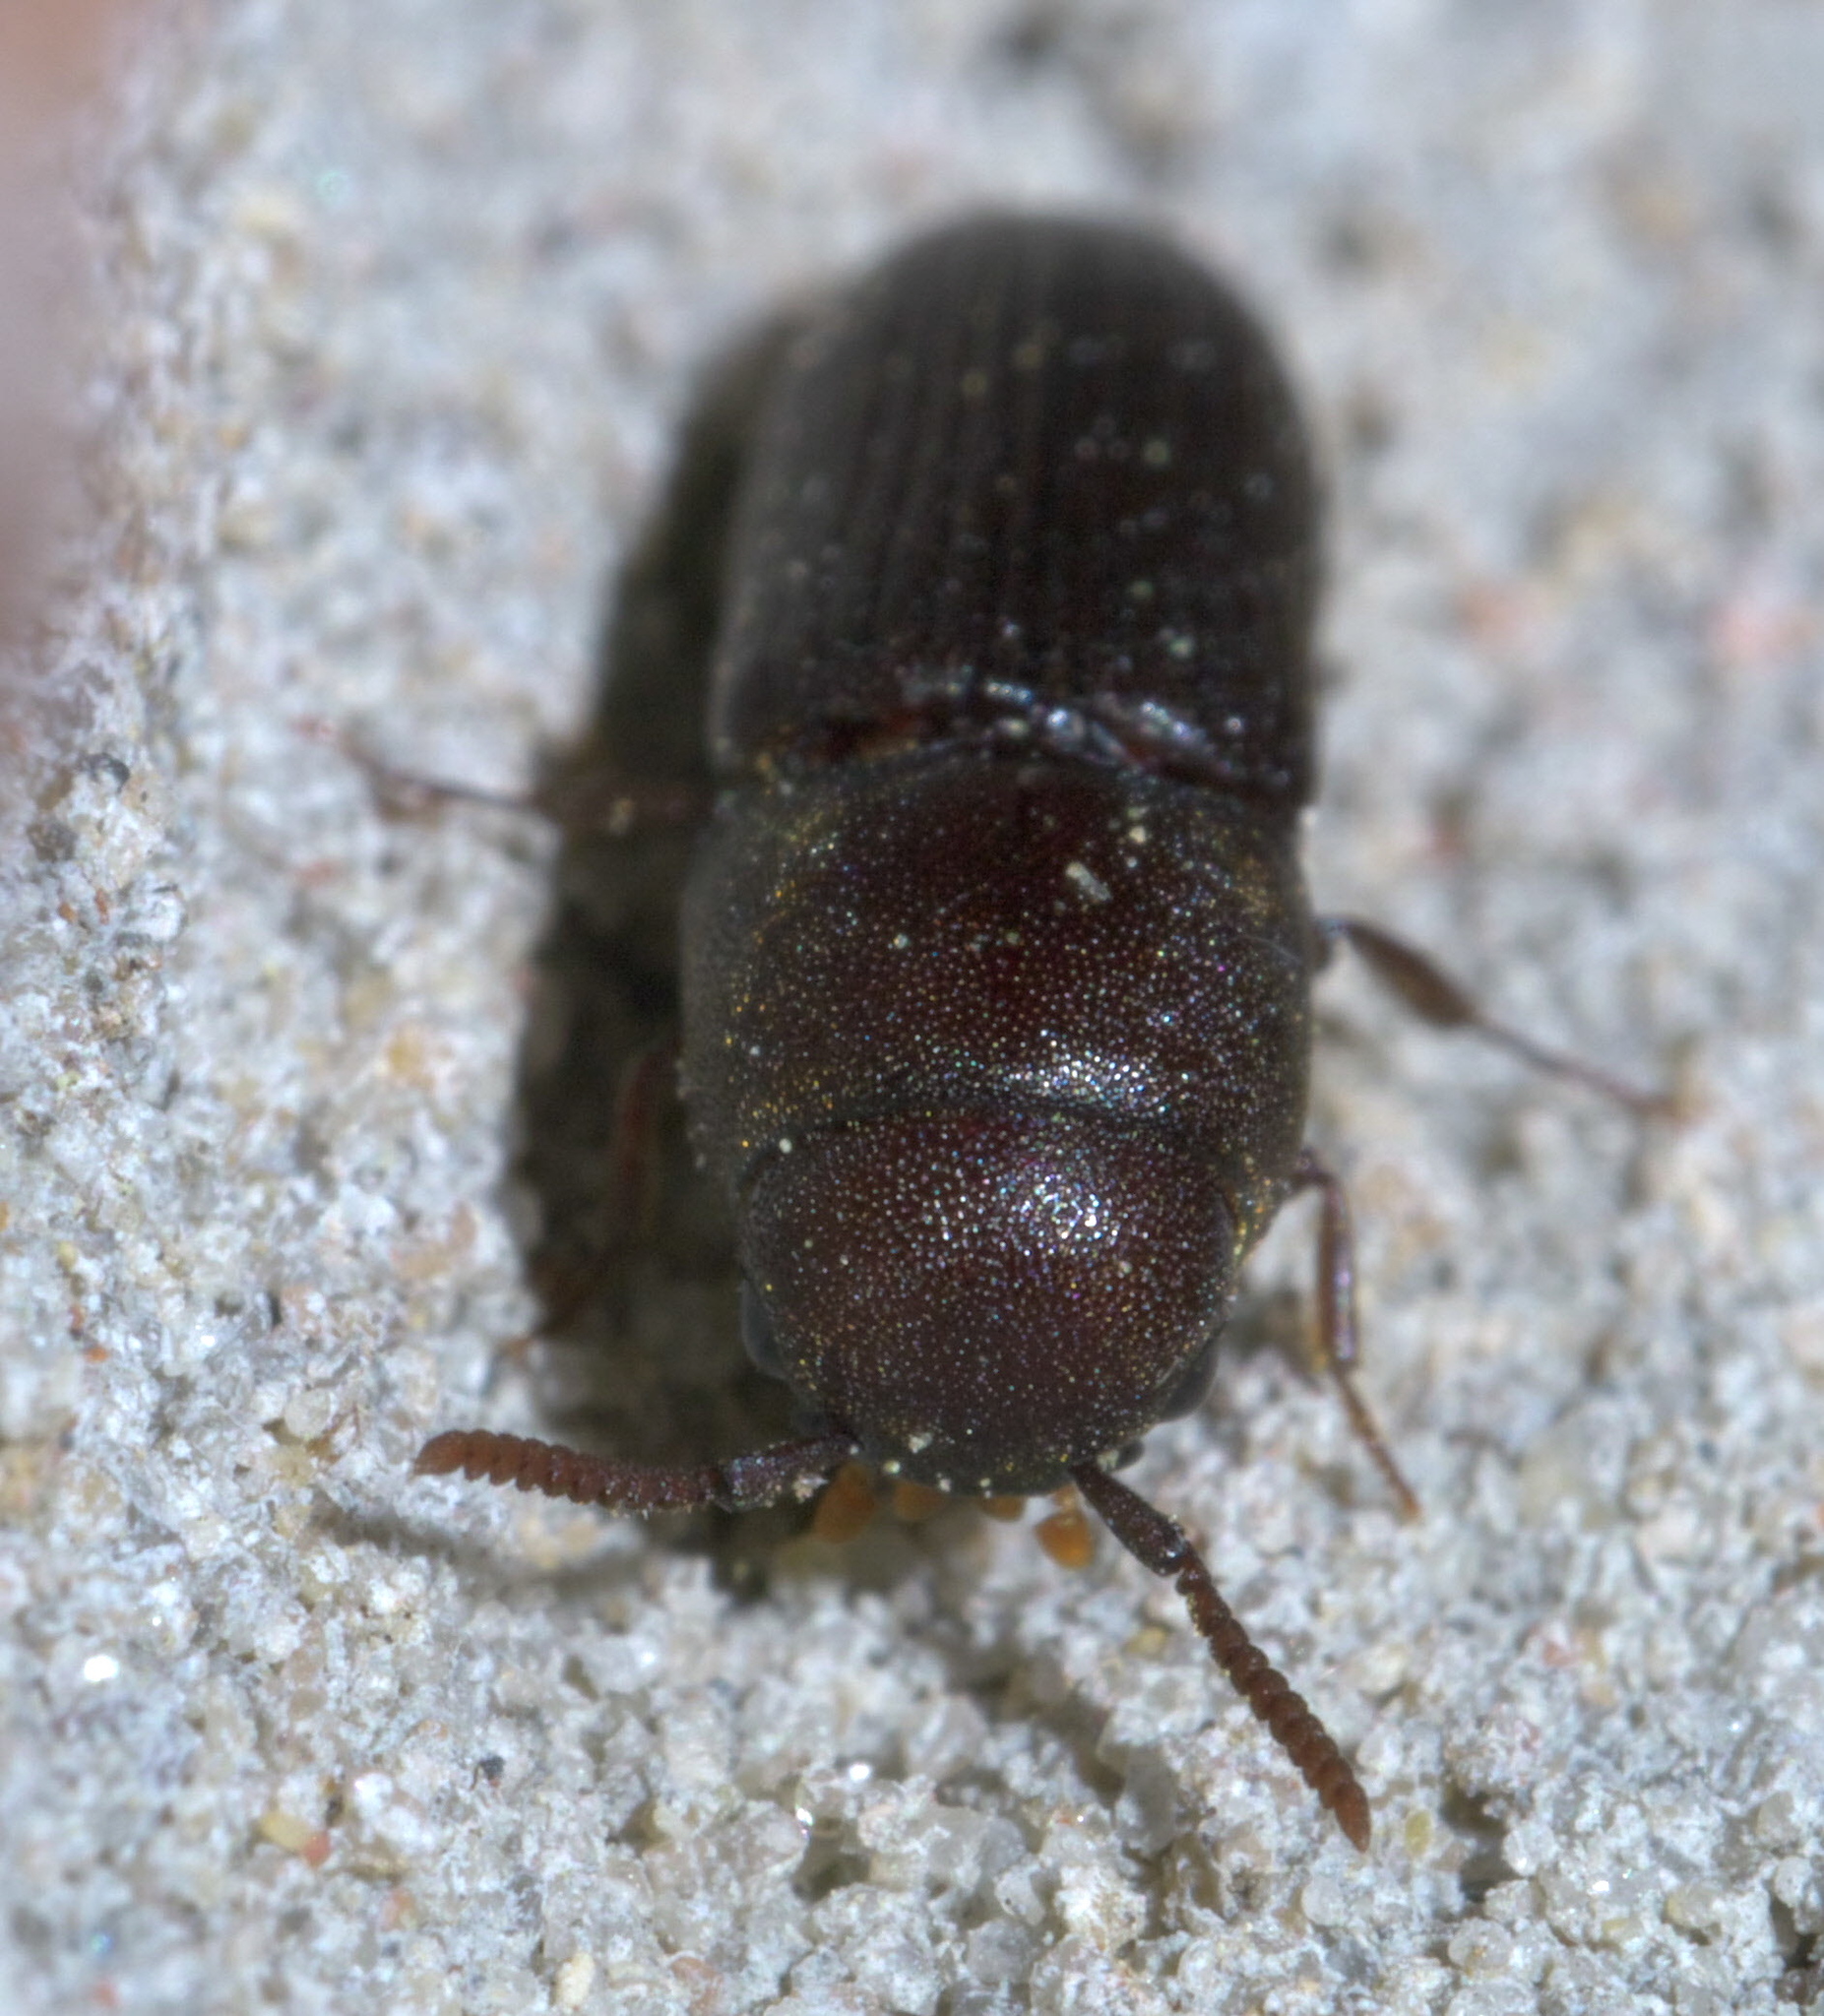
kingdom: Animalia
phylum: Arthropoda
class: Insecta
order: Coleoptera
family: Eucnemidae
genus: Stethon
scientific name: Stethon pectorosus
